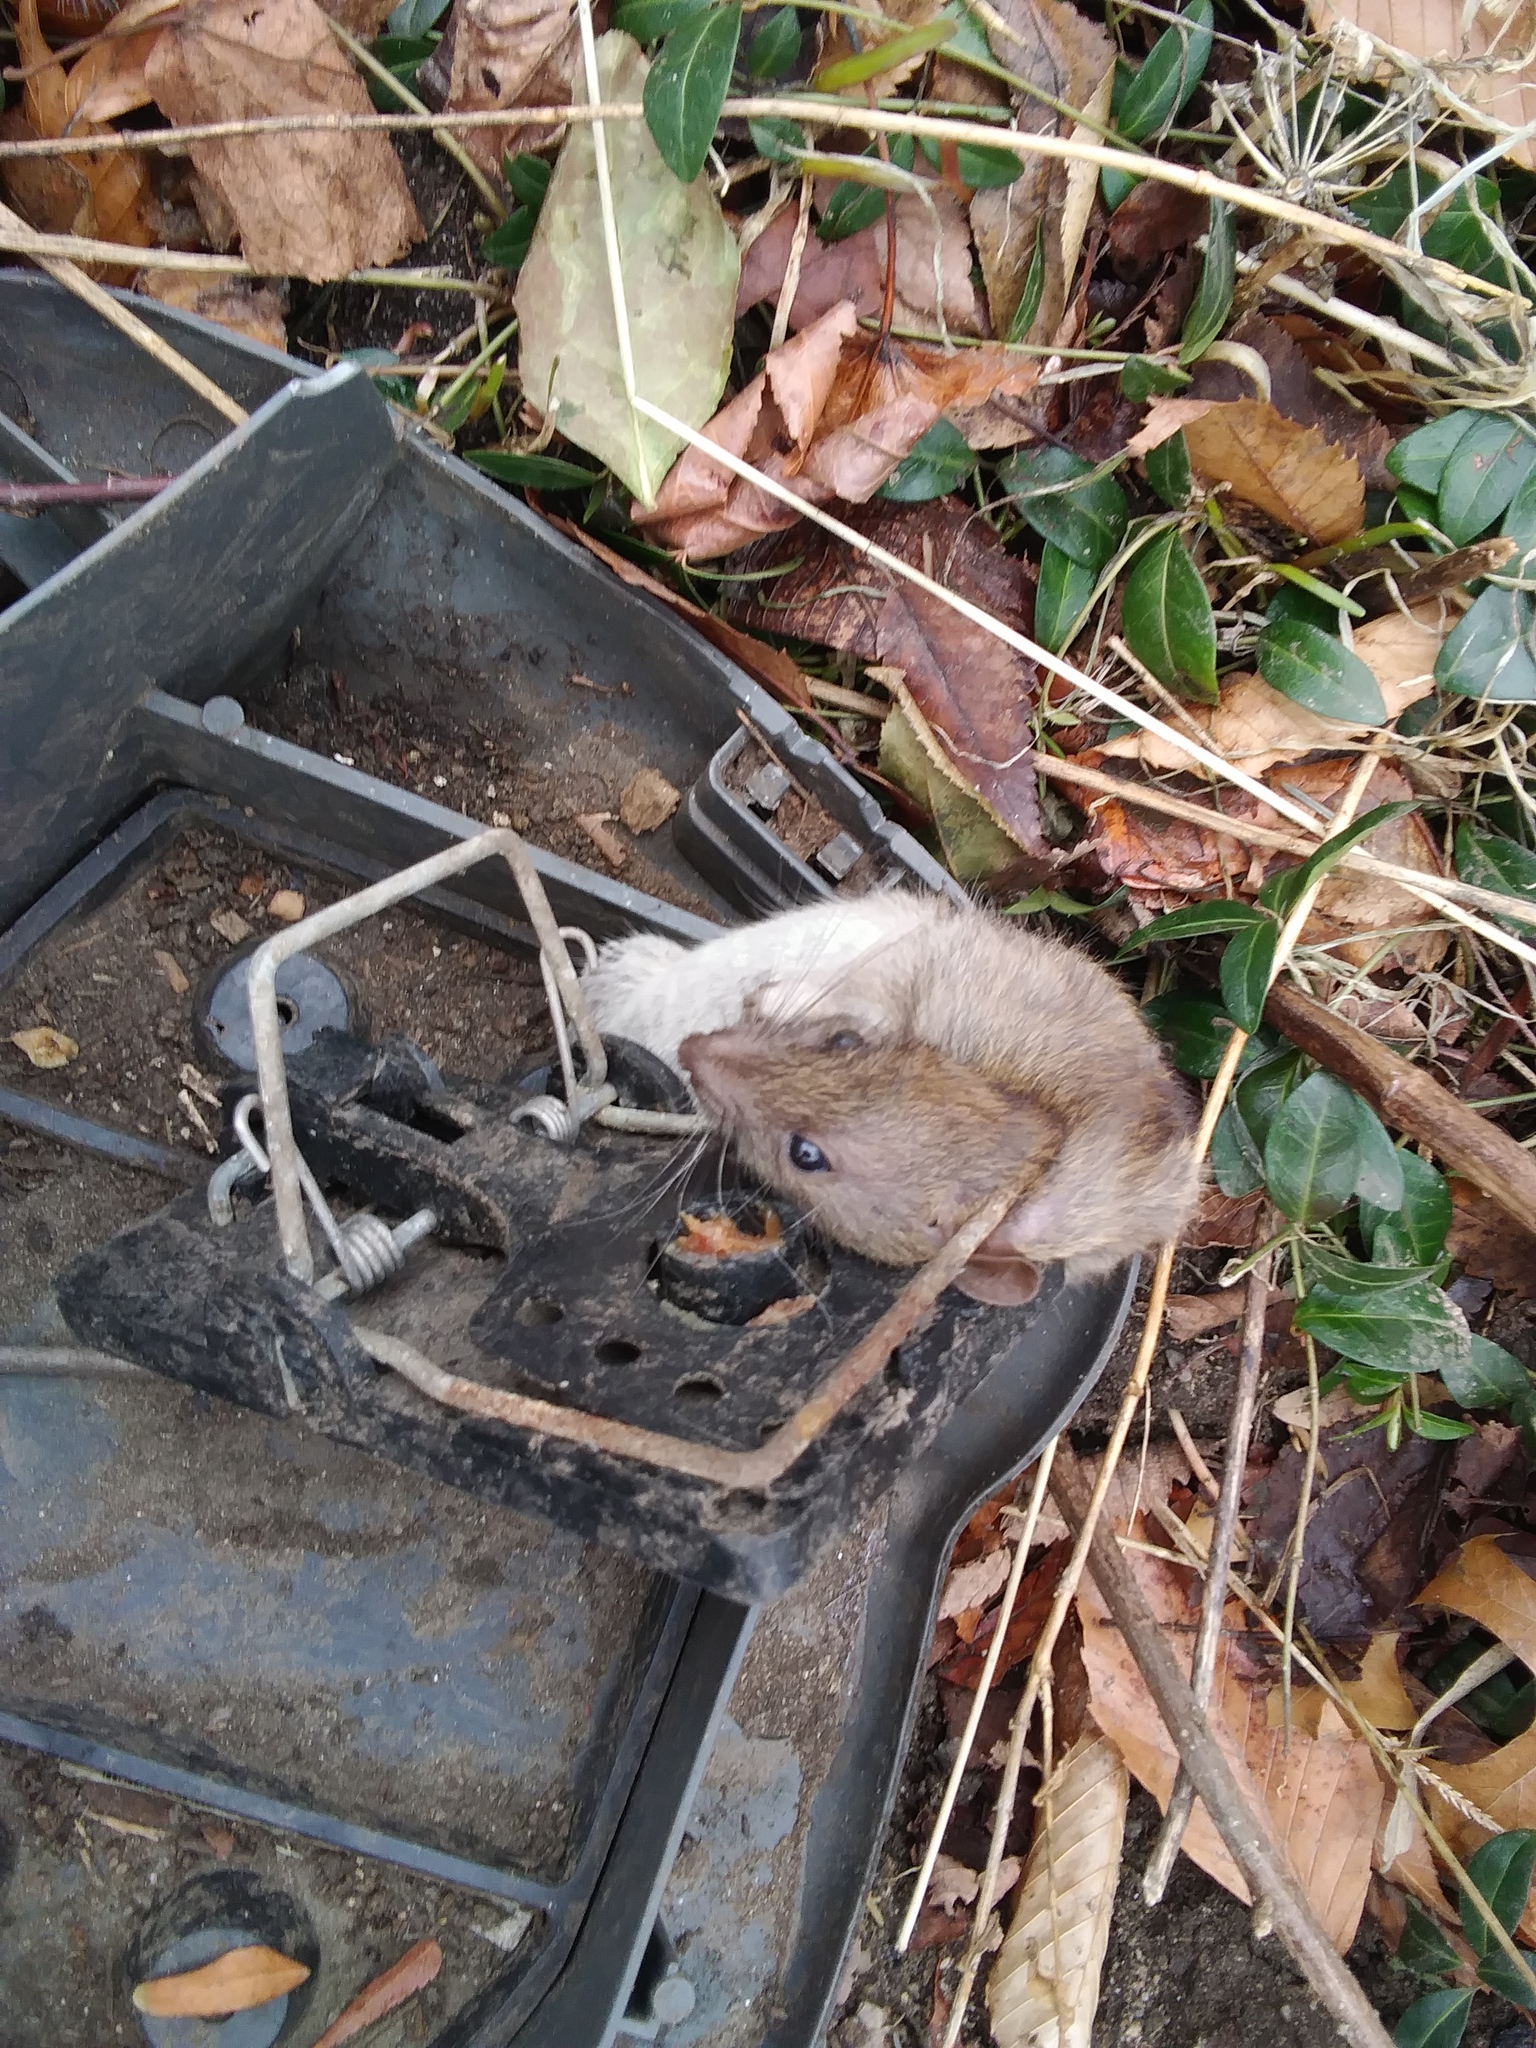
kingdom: Animalia
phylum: Chordata
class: Mammalia
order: Rodentia
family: Muridae
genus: Rattus
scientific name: Rattus norvegicus
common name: Brown rat
